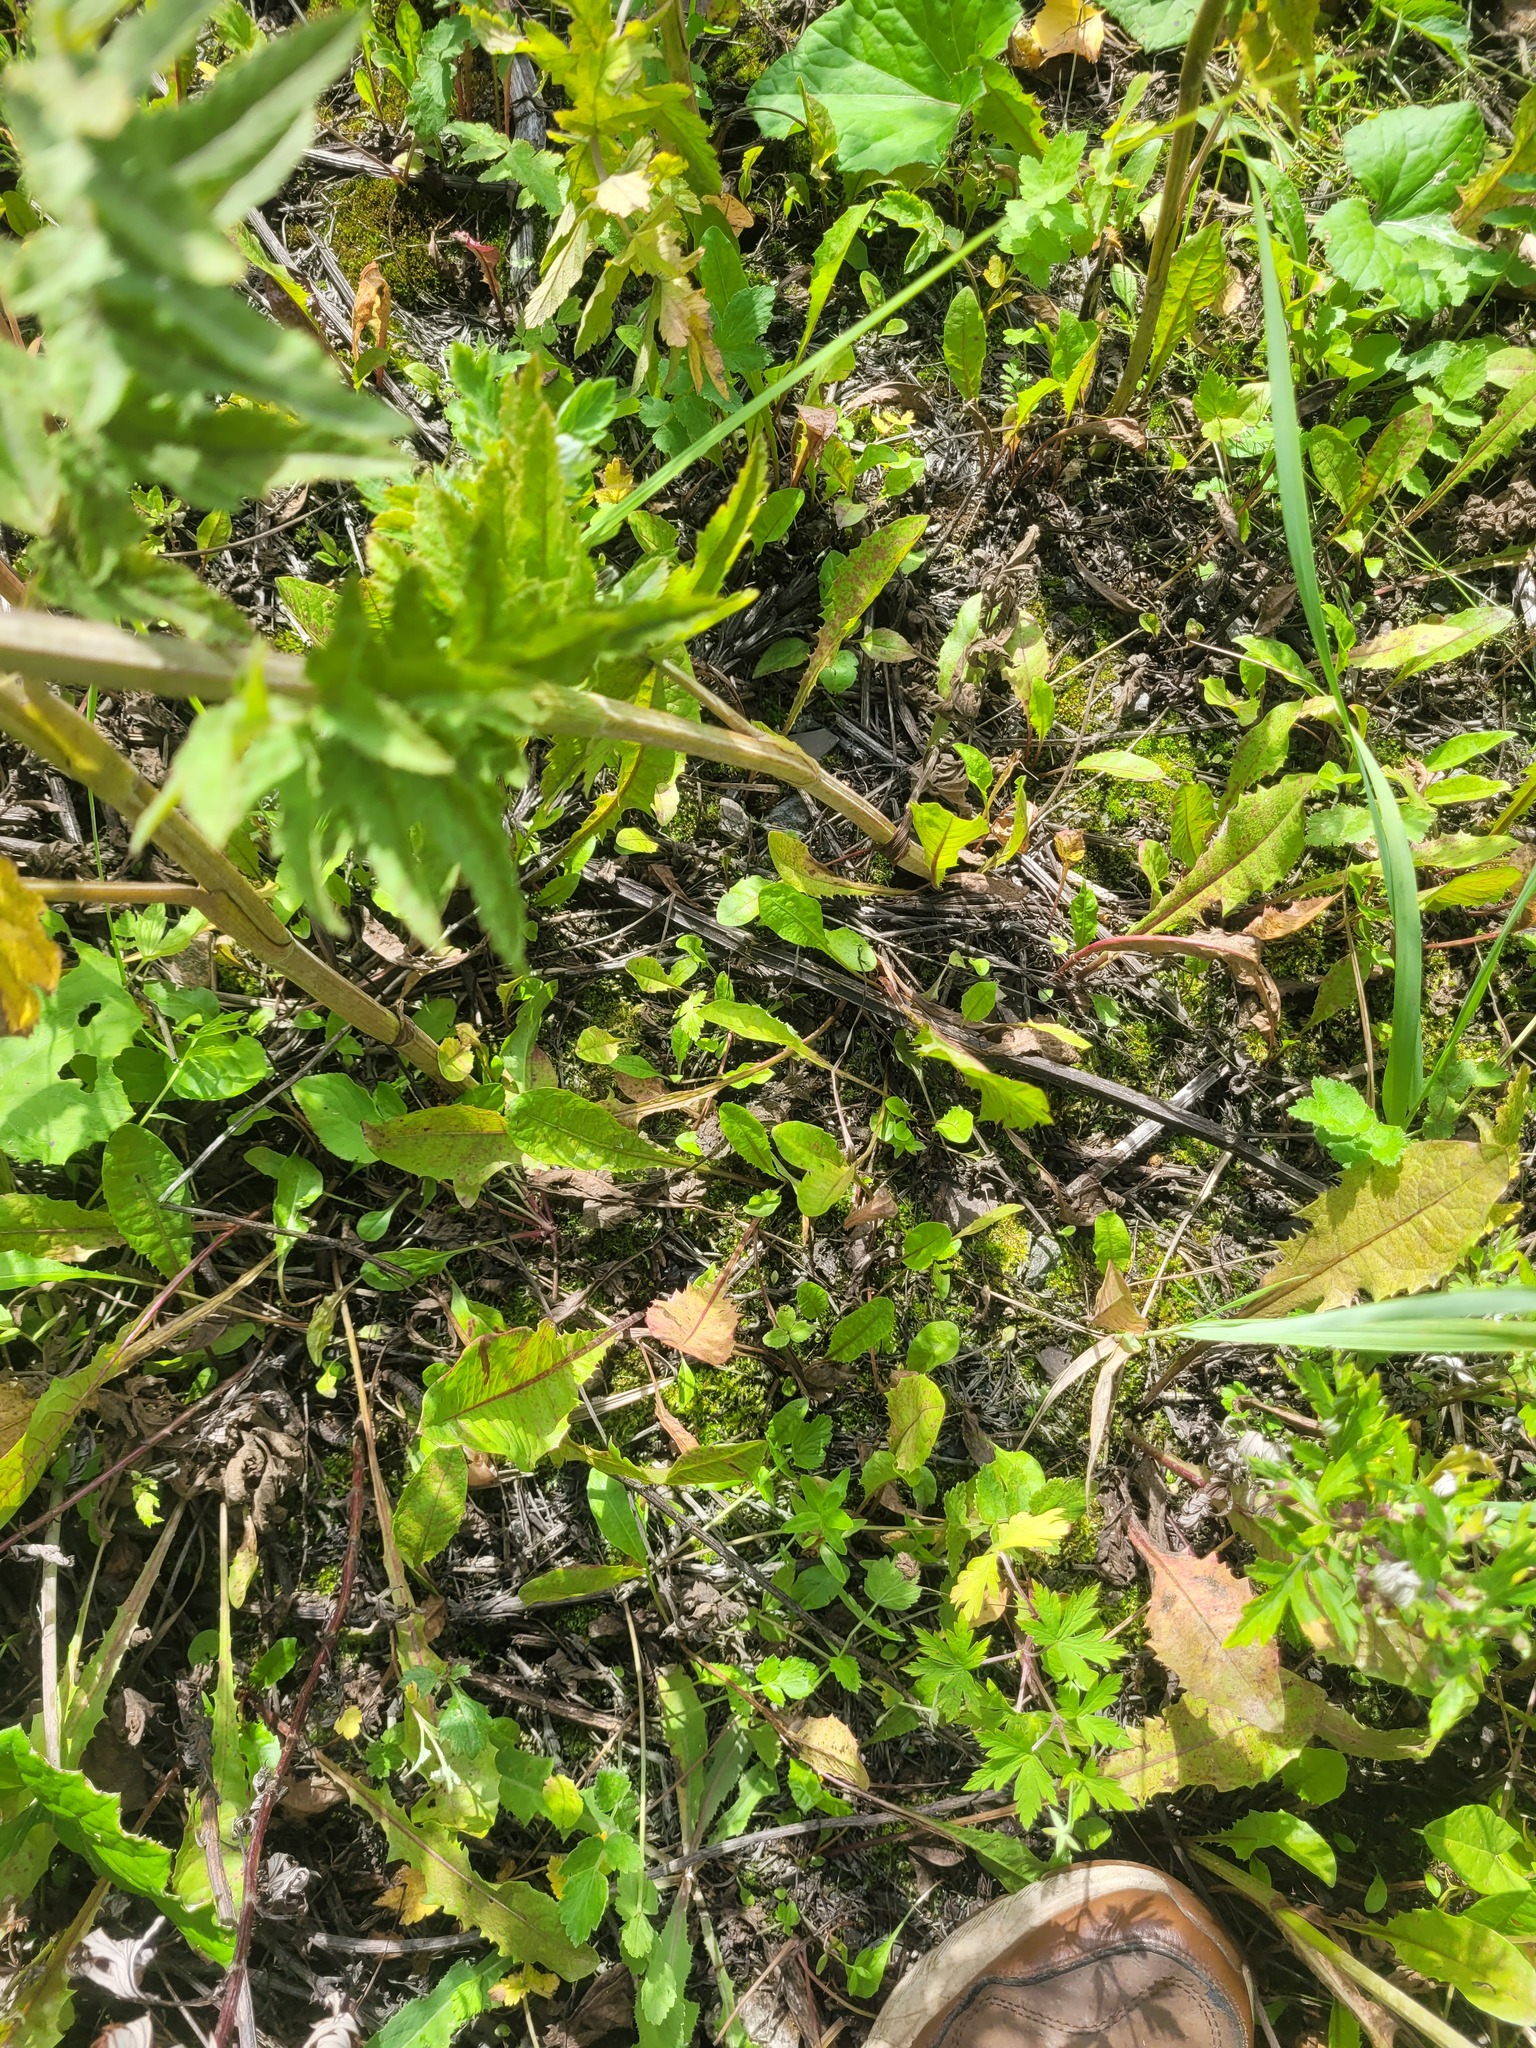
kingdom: Plantae
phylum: Tracheophyta
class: Magnoliopsida
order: Asterales
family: Asteraceae
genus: Taraxacum
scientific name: Taraxacum officinale
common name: Common dandelion
